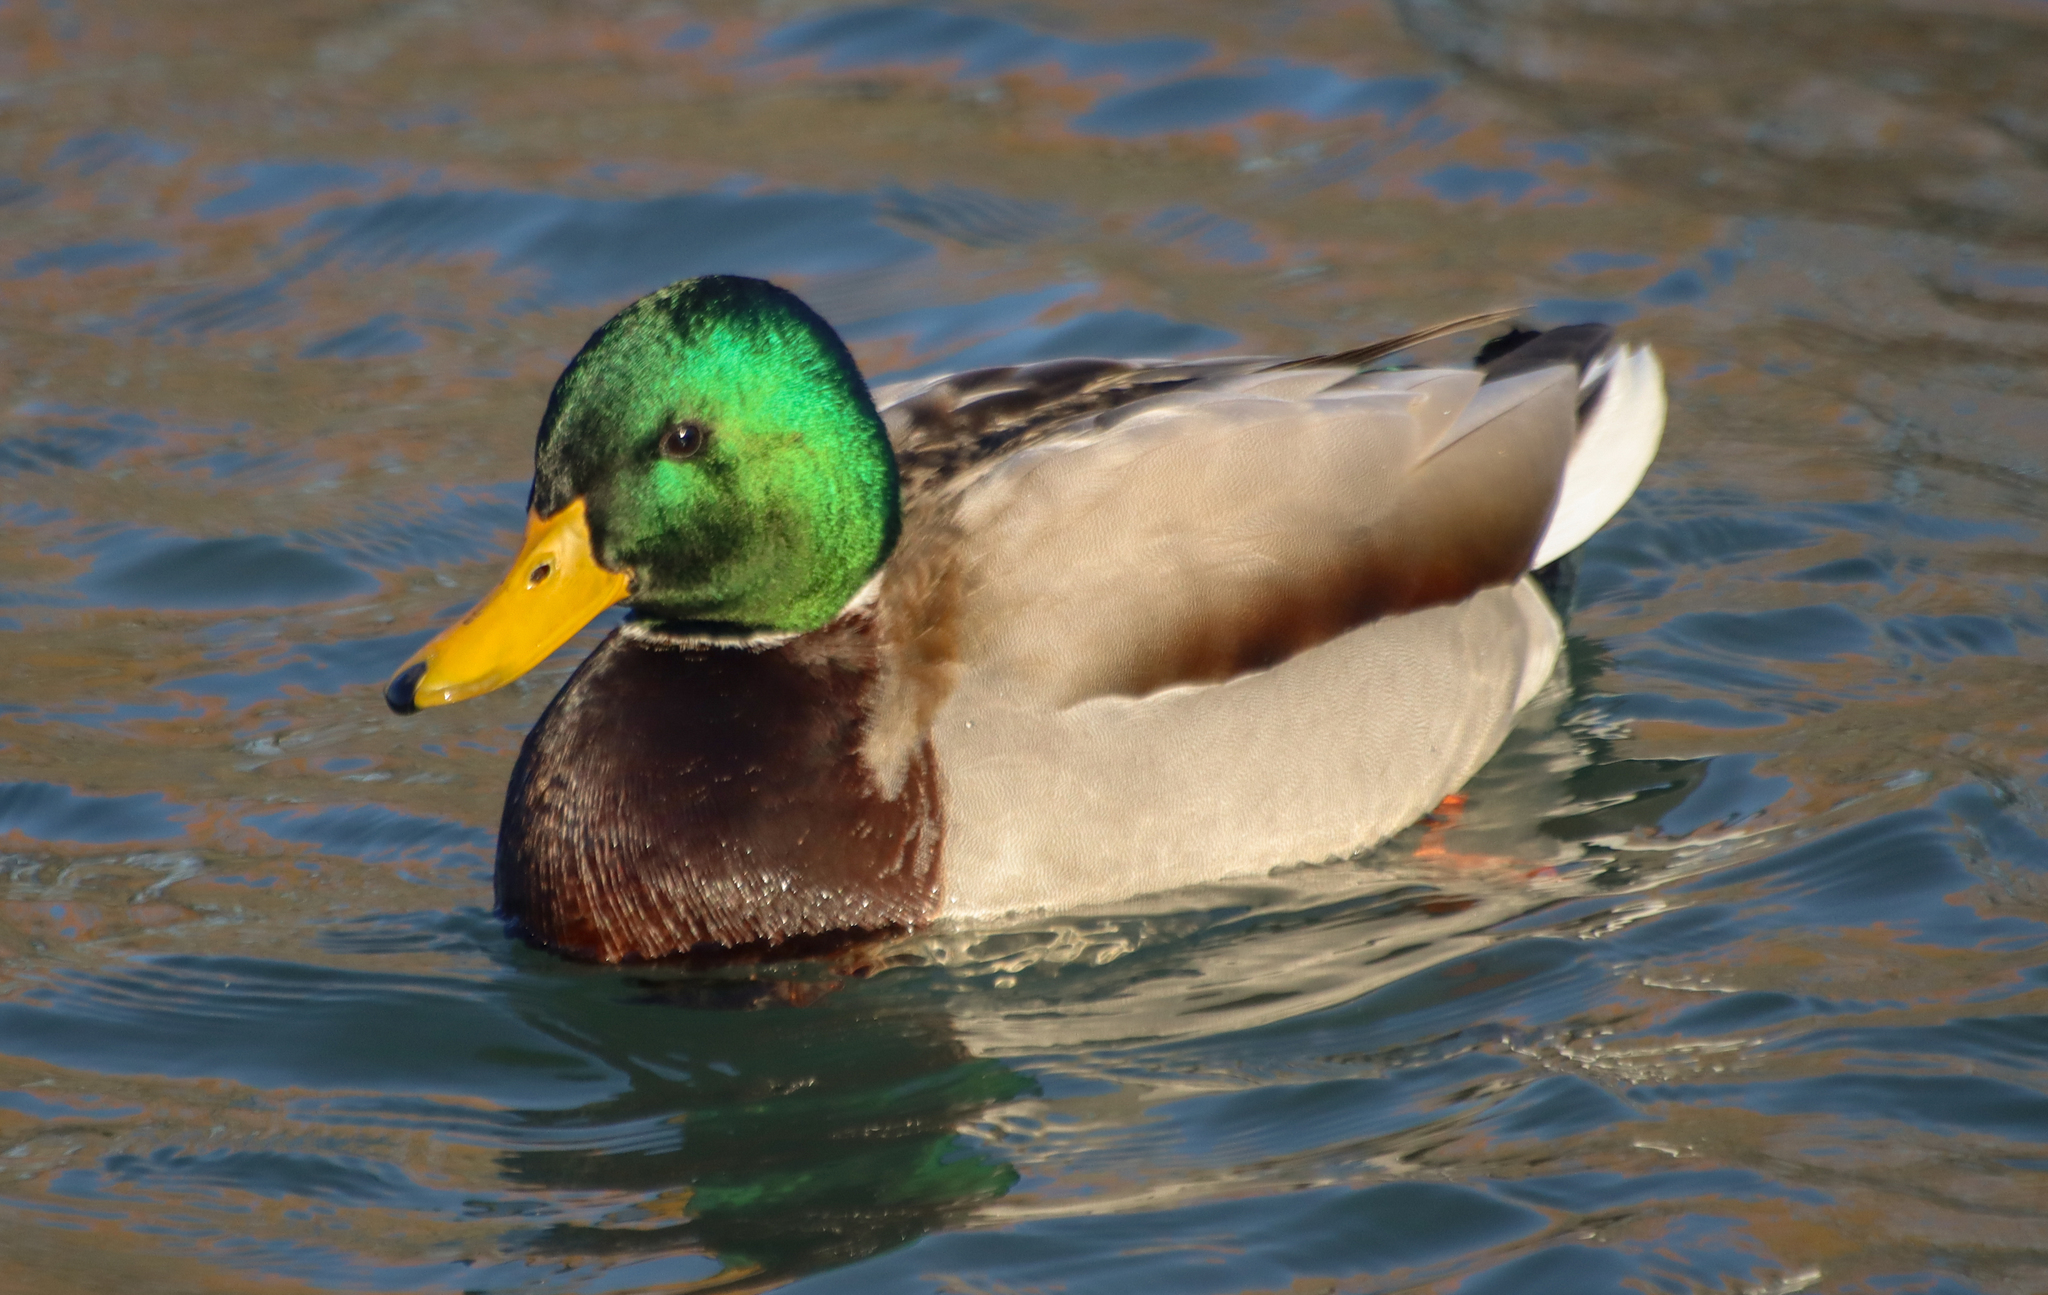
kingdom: Animalia
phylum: Chordata
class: Aves
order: Anseriformes
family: Anatidae
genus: Anas
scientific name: Anas platyrhynchos
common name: Mallard
